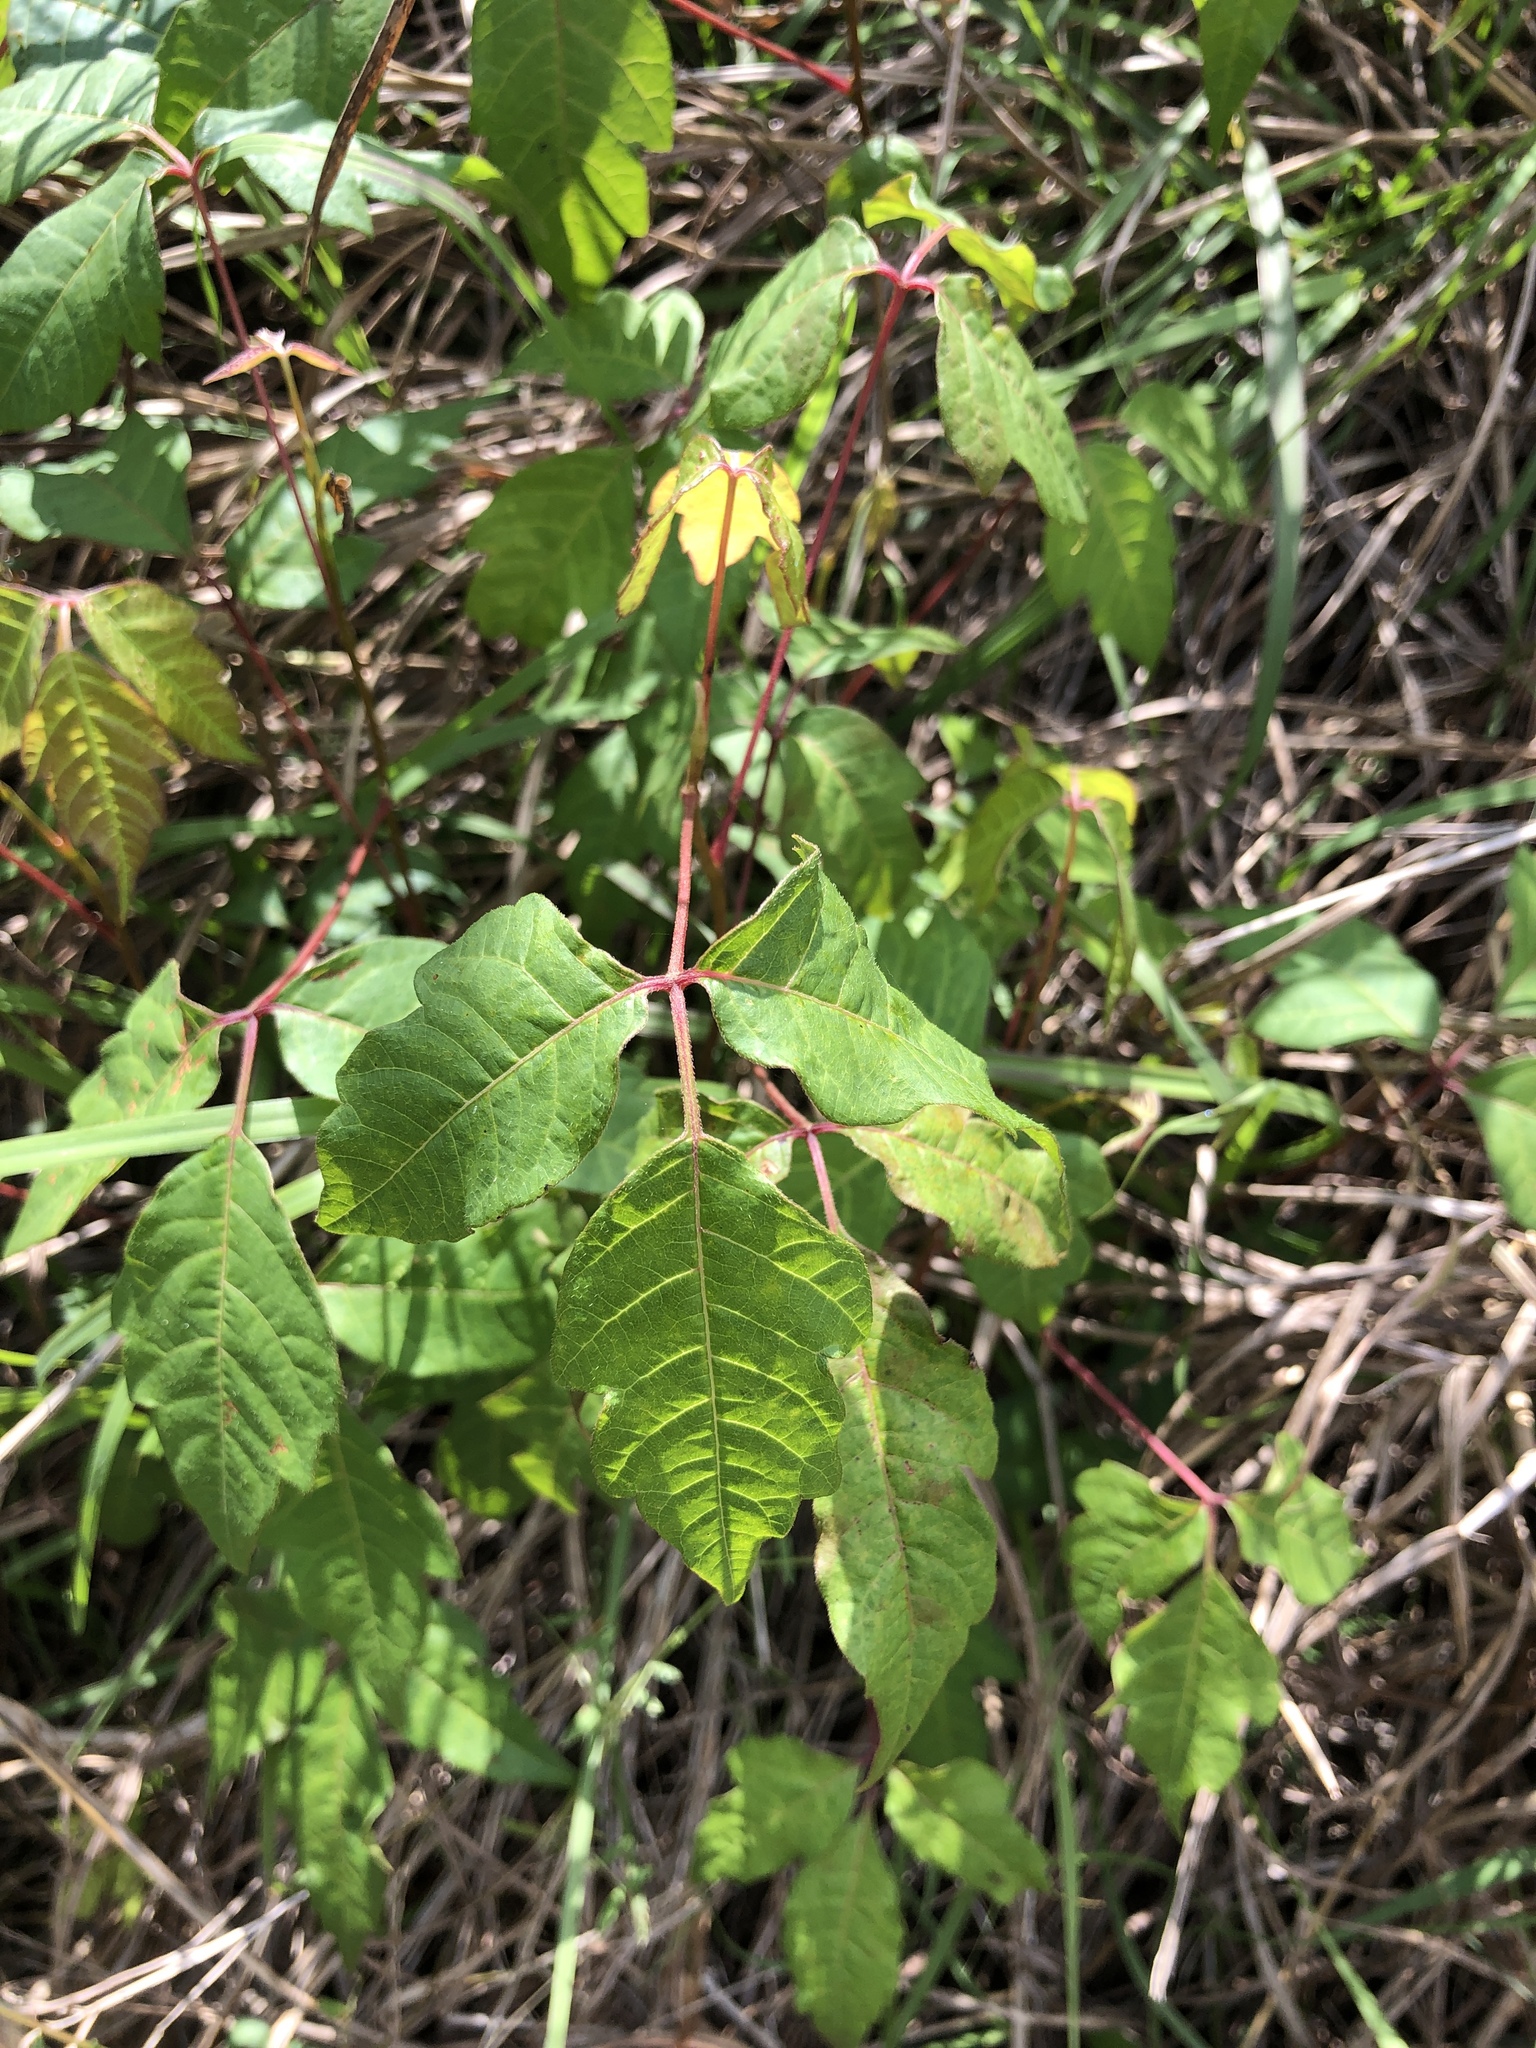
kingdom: Plantae
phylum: Tracheophyta
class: Magnoliopsida
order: Sapindales
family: Anacardiaceae
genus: Toxicodendron
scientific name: Toxicodendron radicans
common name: Poison ivy
